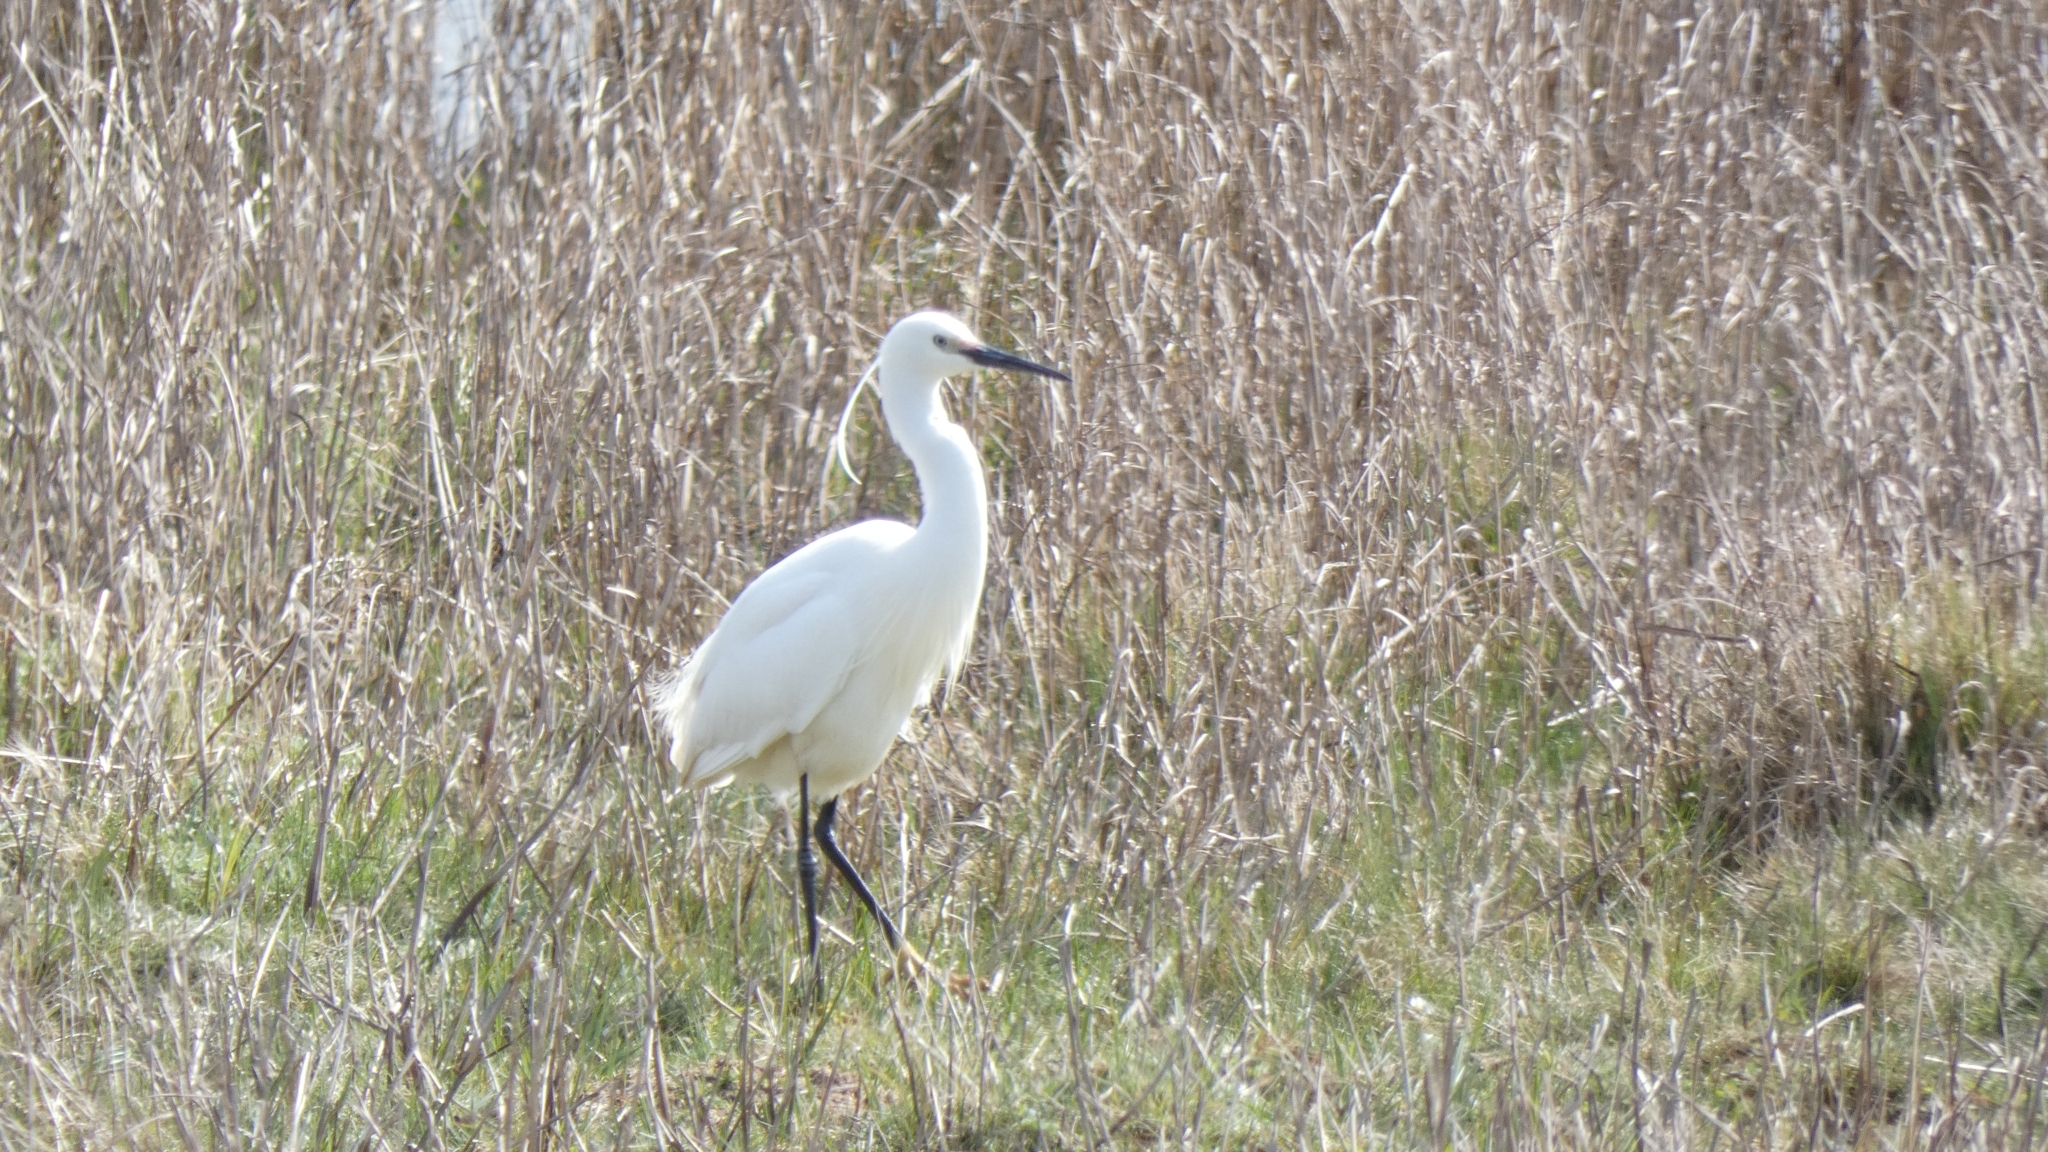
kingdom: Animalia
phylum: Chordata
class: Aves
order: Pelecaniformes
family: Ardeidae
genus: Egretta
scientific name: Egretta garzetta
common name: Little egret
